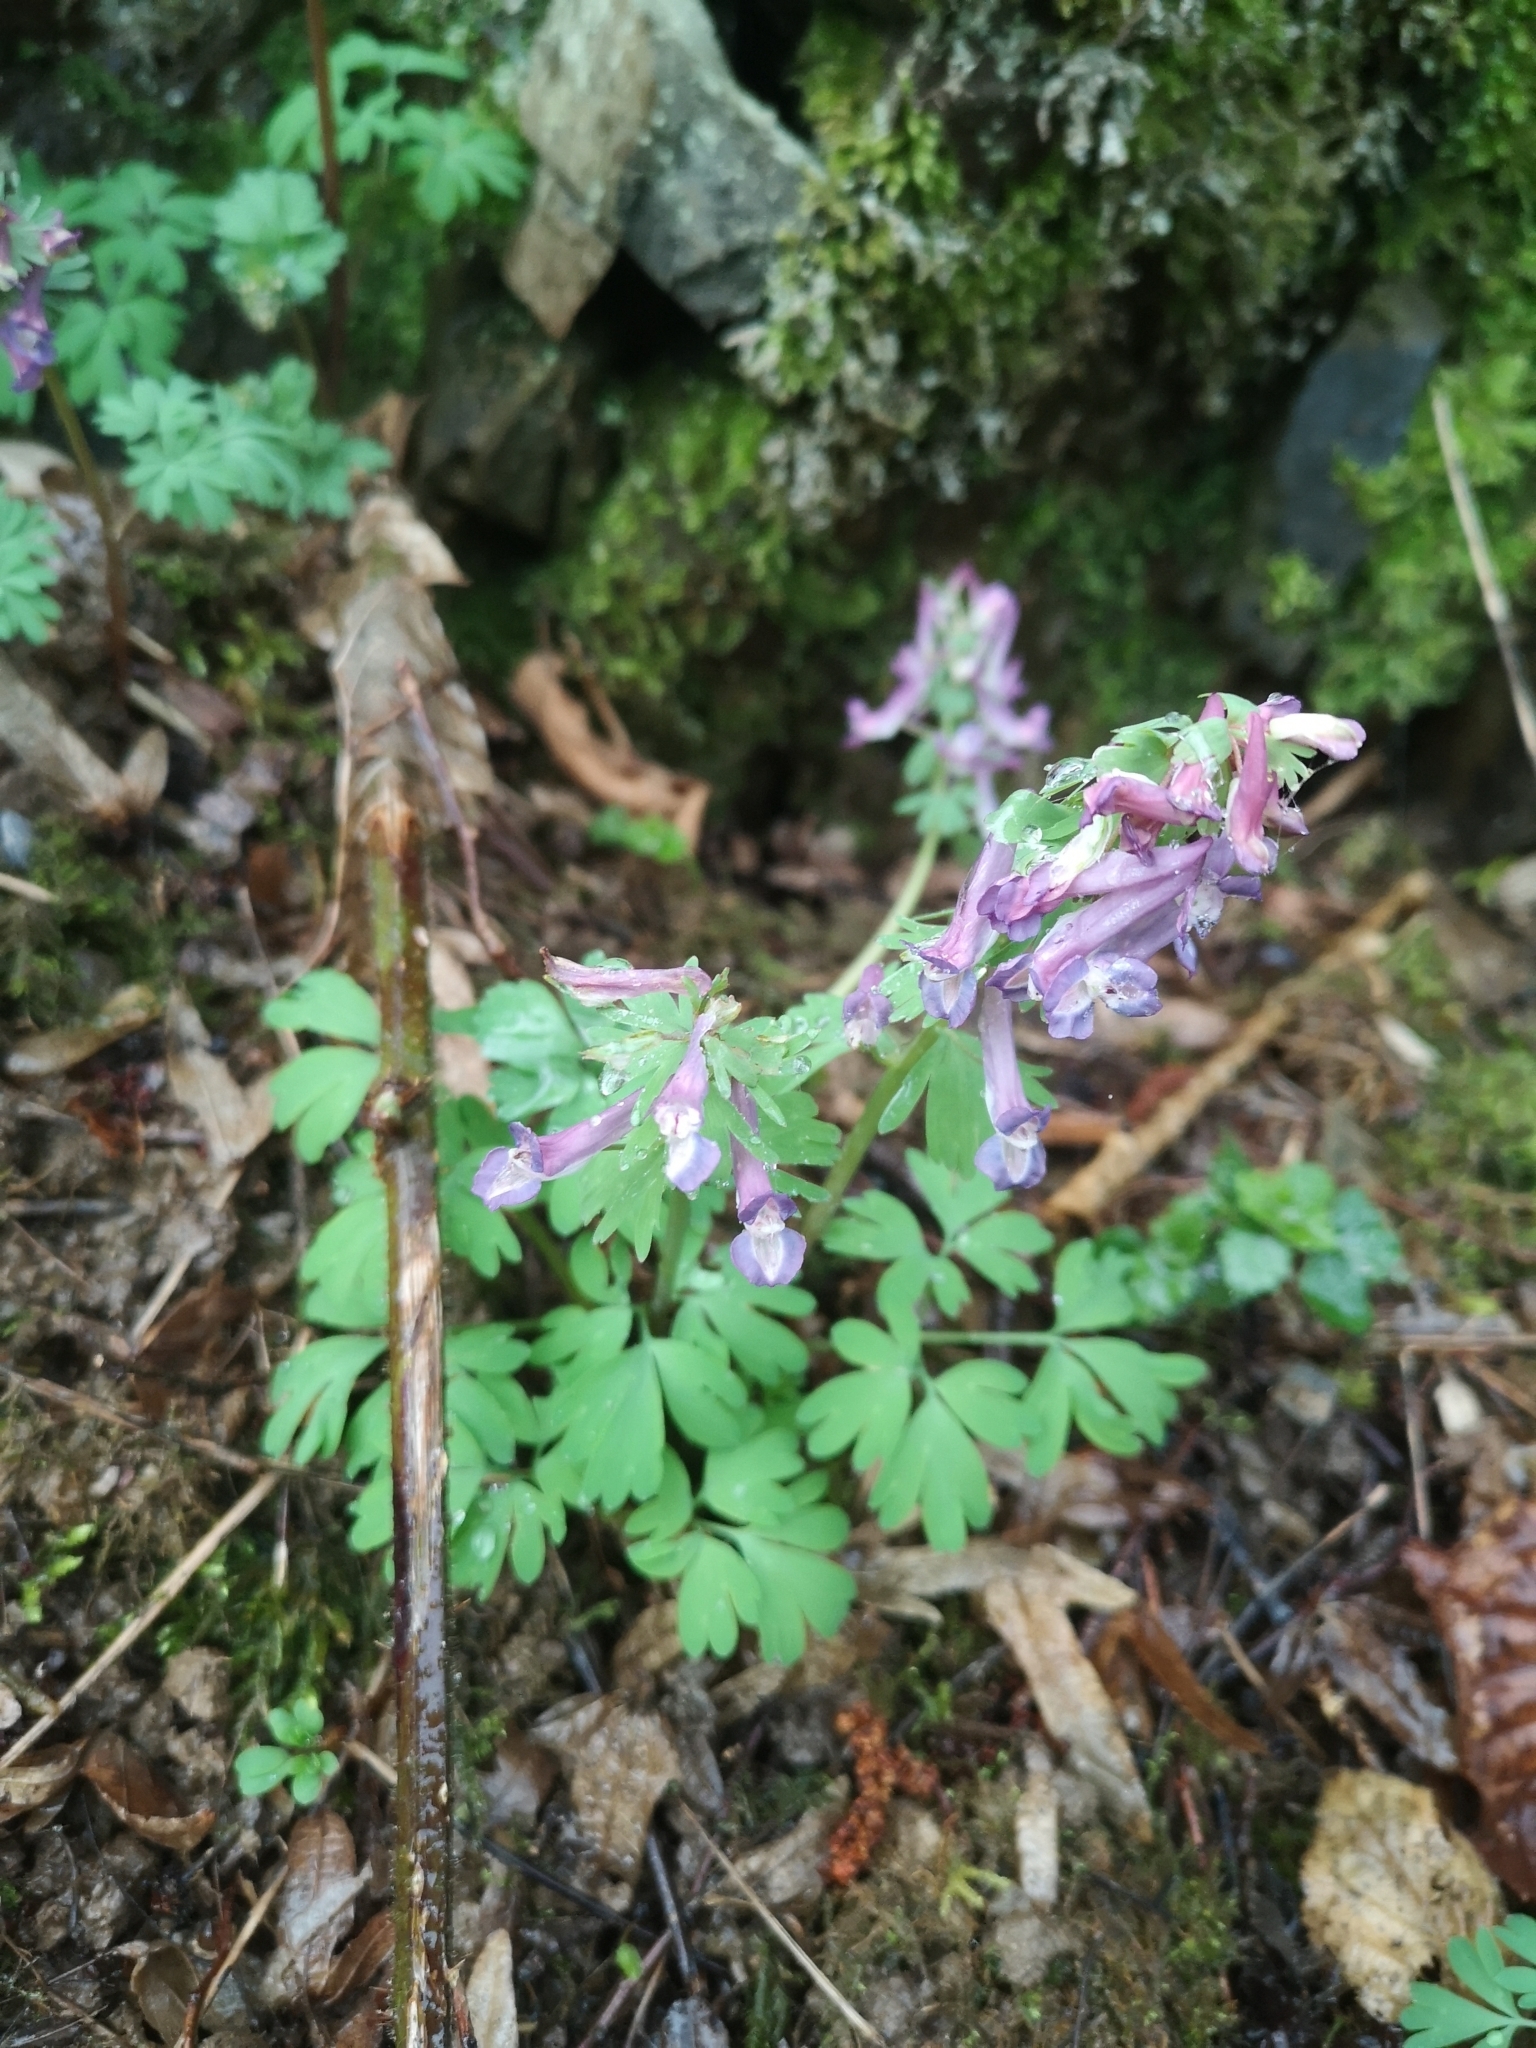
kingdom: Plantae
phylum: Tracheophyta
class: Magnoliopsida
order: Ranunculales
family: Papaveraceae
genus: Corydalis
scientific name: Corydalis solida
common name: Bird-in-a-bush
